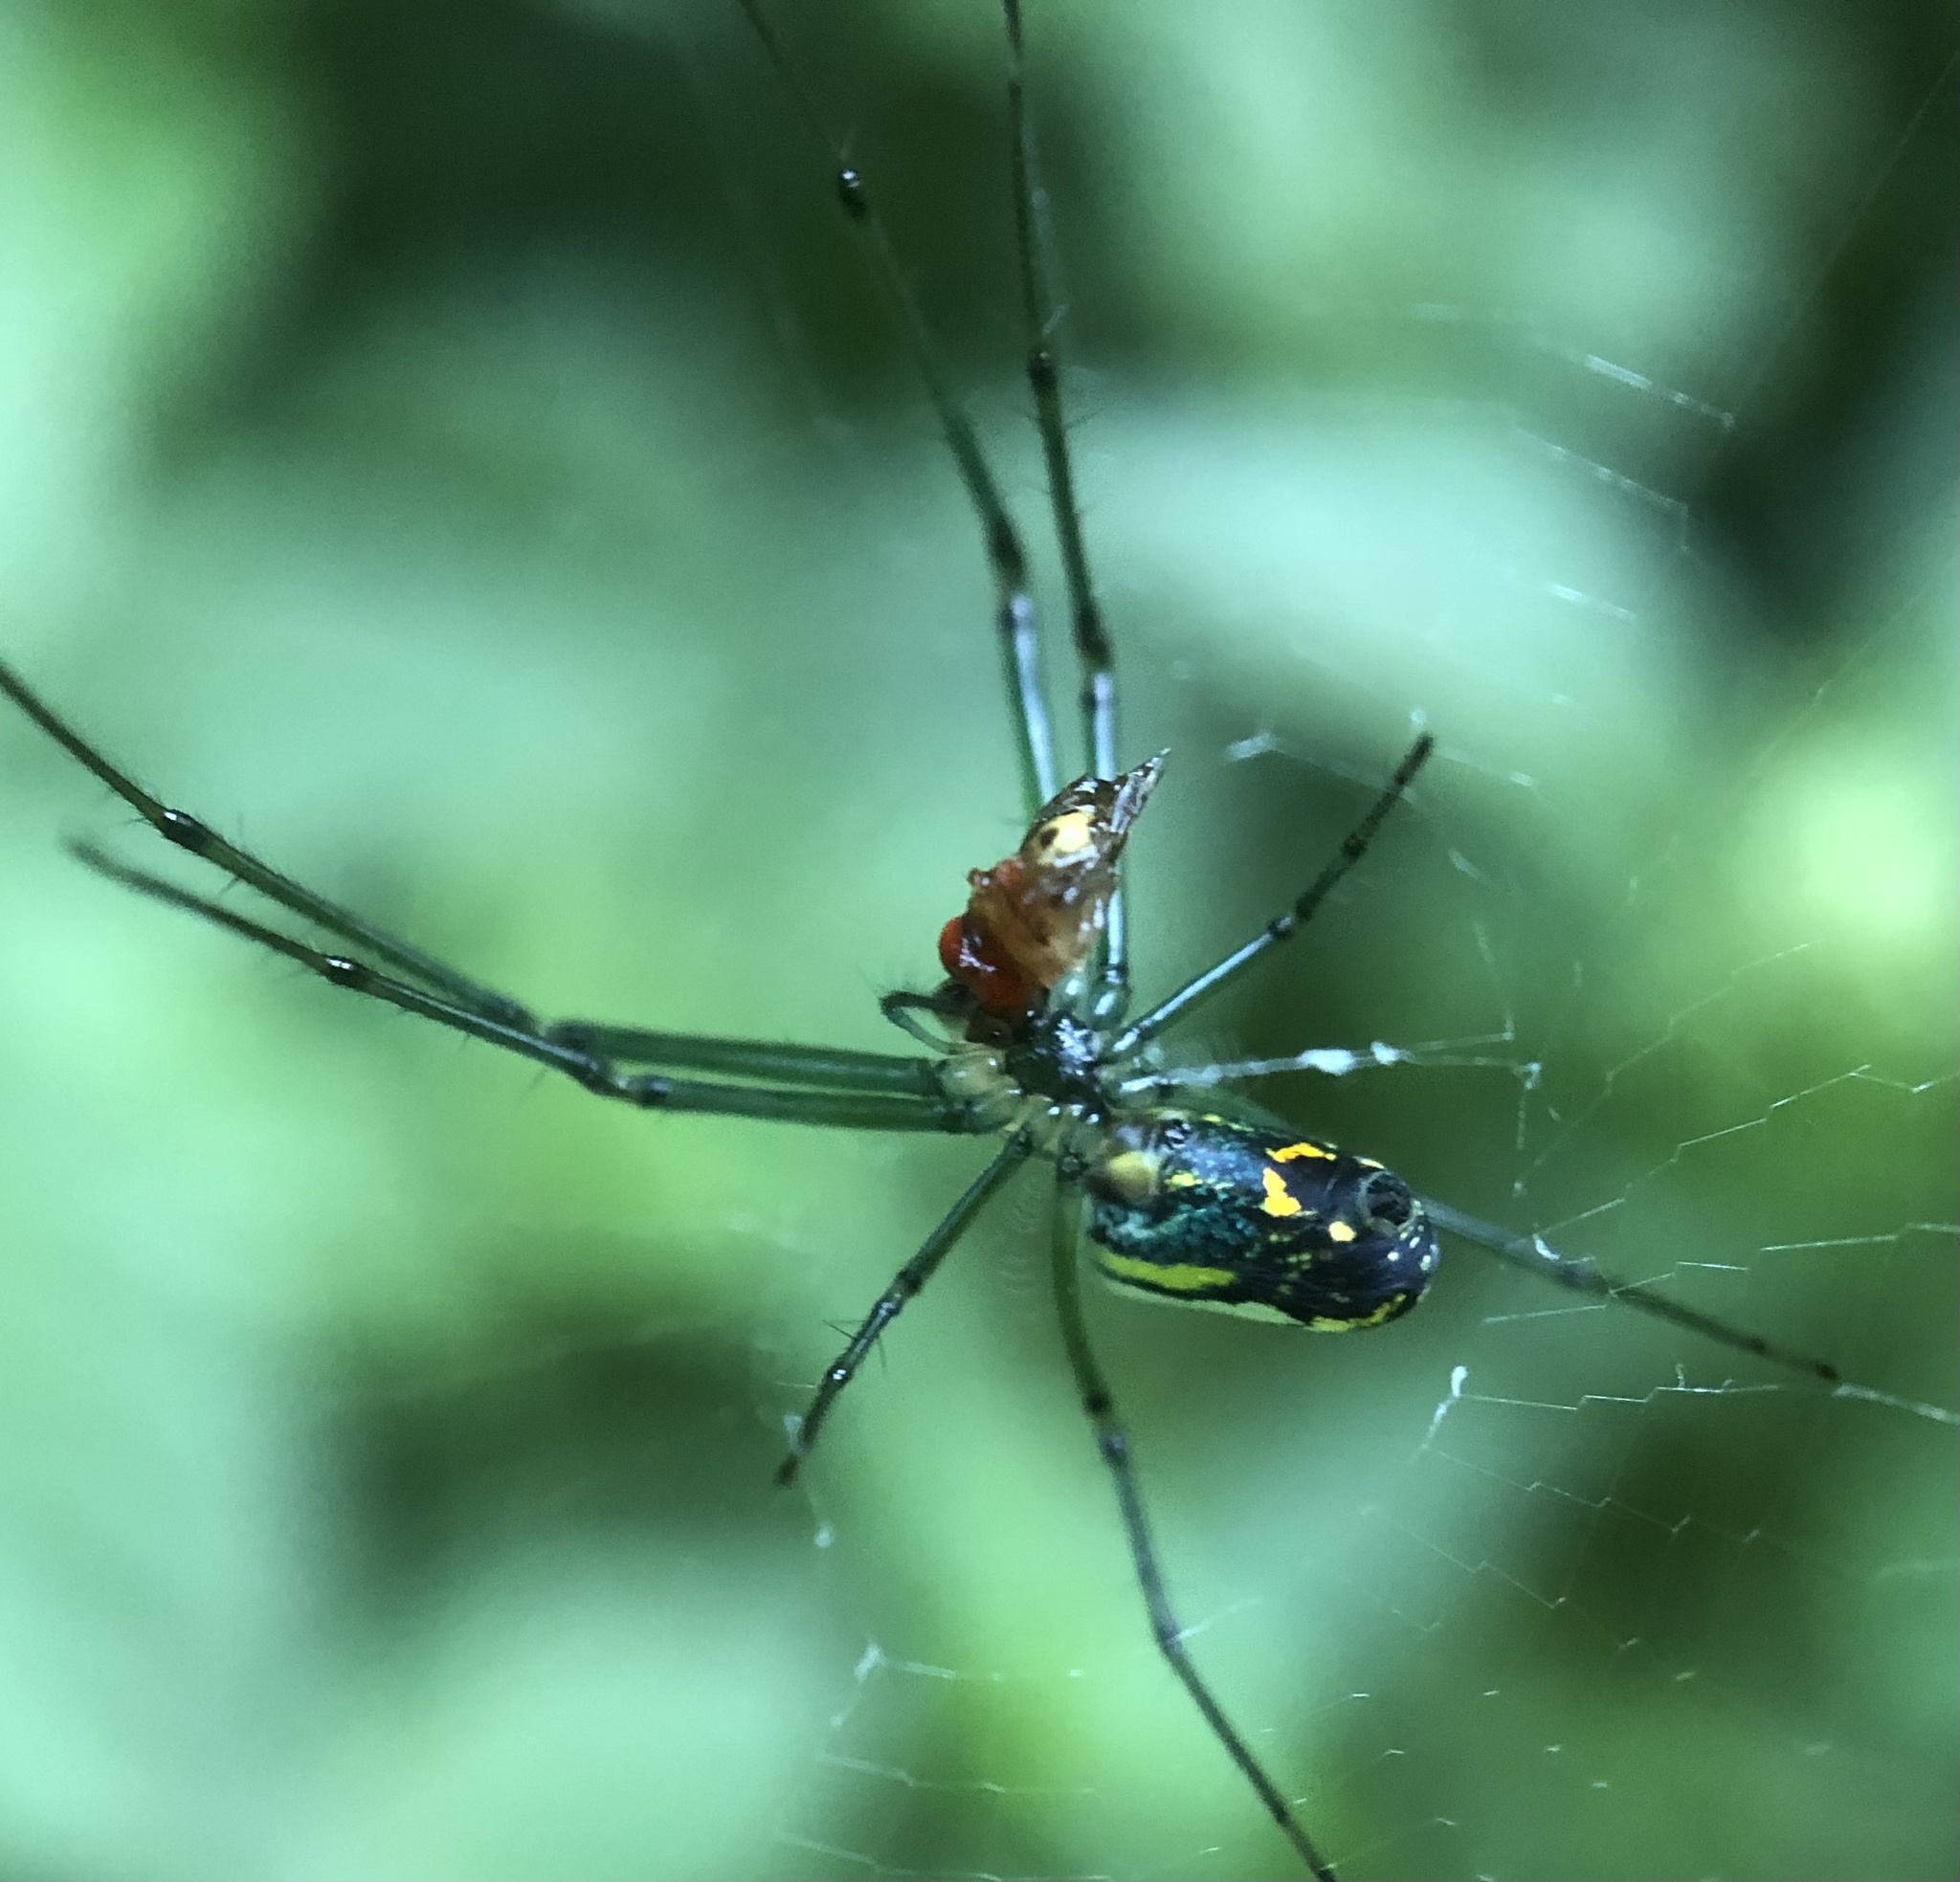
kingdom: Animalia
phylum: Arthropoda
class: Arachnida
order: Araneae
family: Tetragnathidae
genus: Leucauge
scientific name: Leucauge venusta
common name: Longjawed orb weavers
